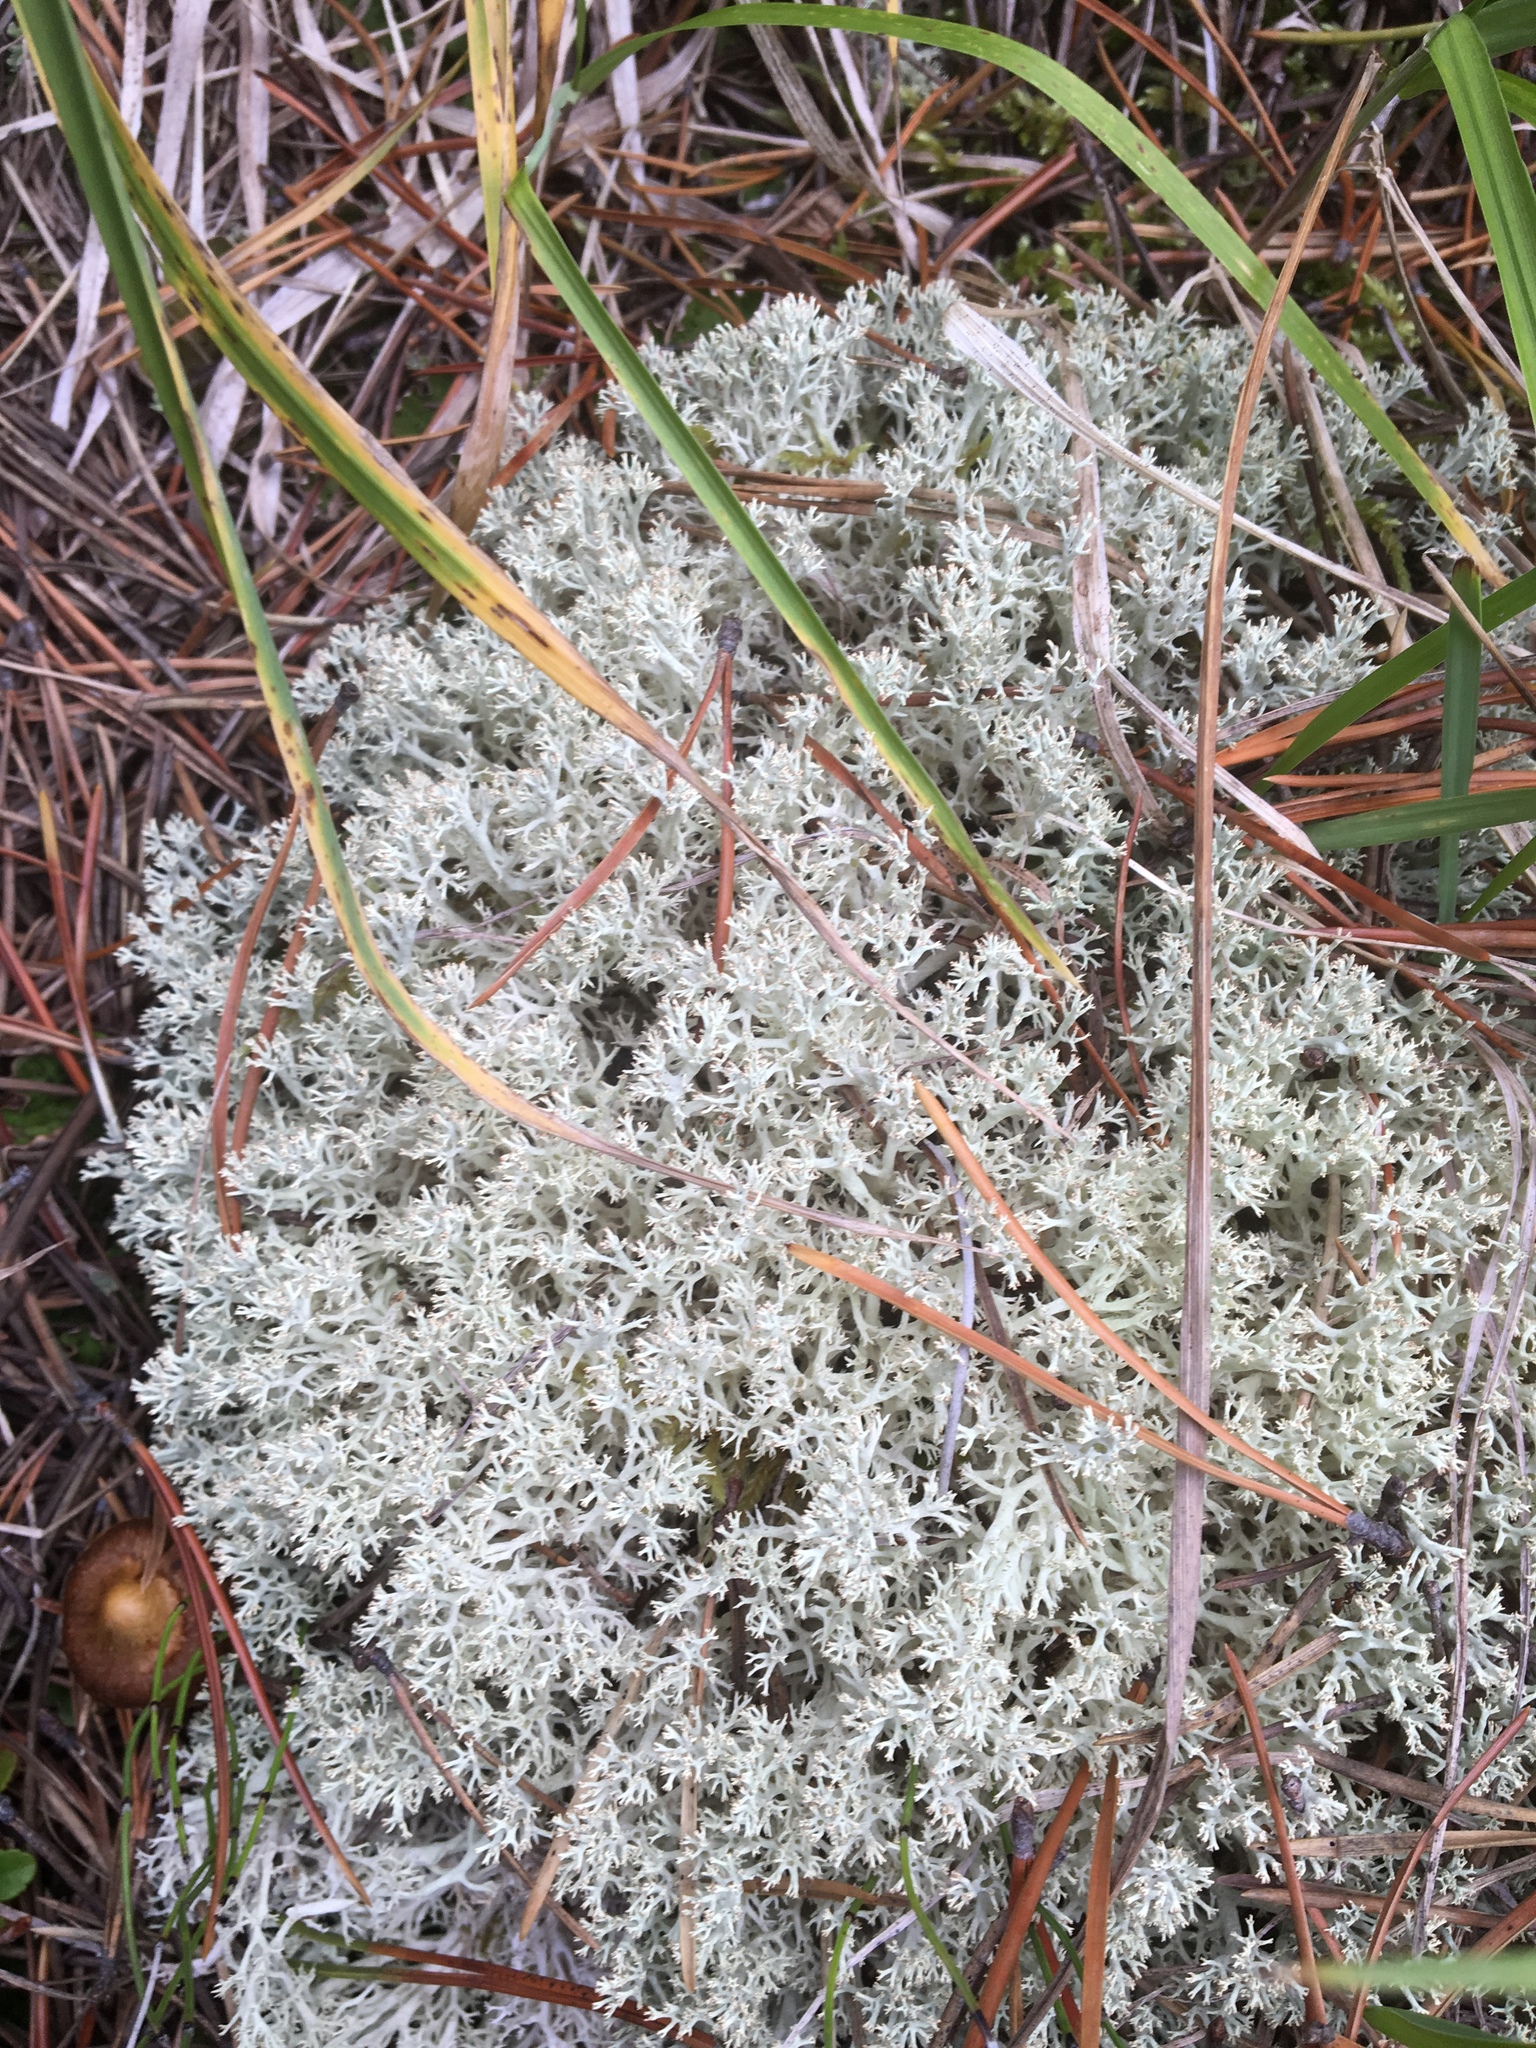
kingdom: Fungi
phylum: Ascomycota
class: Lecanoromycetes
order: Lecanorales
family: Cladoniaceae
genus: Cladonia
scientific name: Cladonia rangiferina
